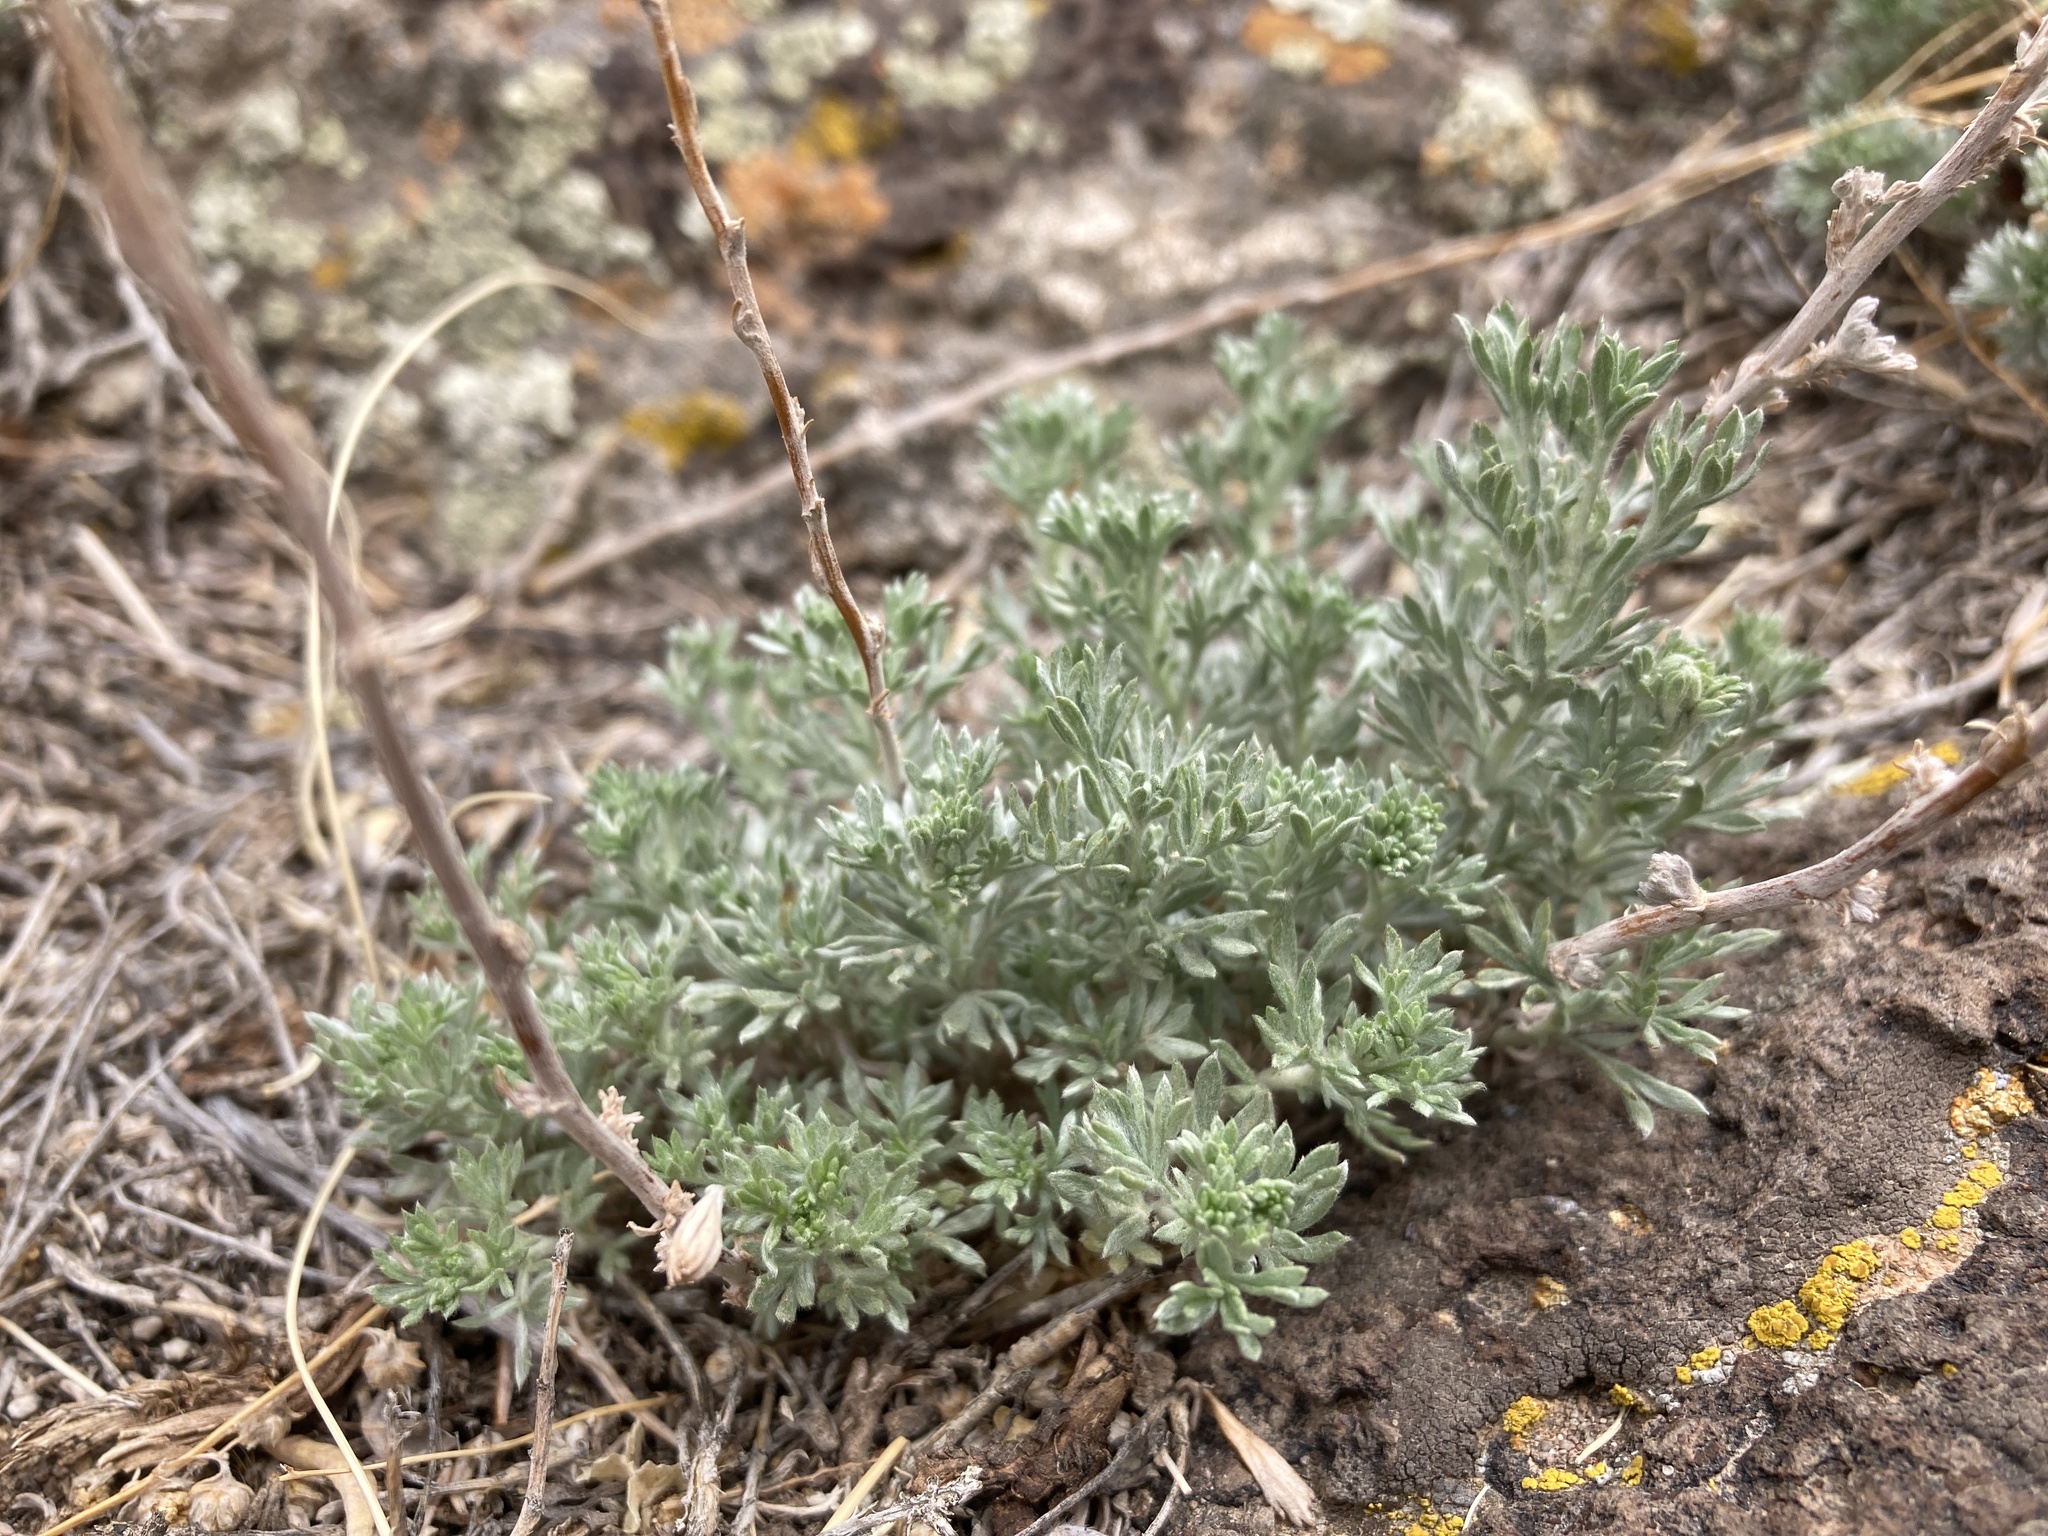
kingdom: Plantae
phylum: Tracheophyta
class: Magnoliopsida
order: Asterales
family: Asteraceae
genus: Artemisia
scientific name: Artemisia frigida
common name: Prairie sagewort
